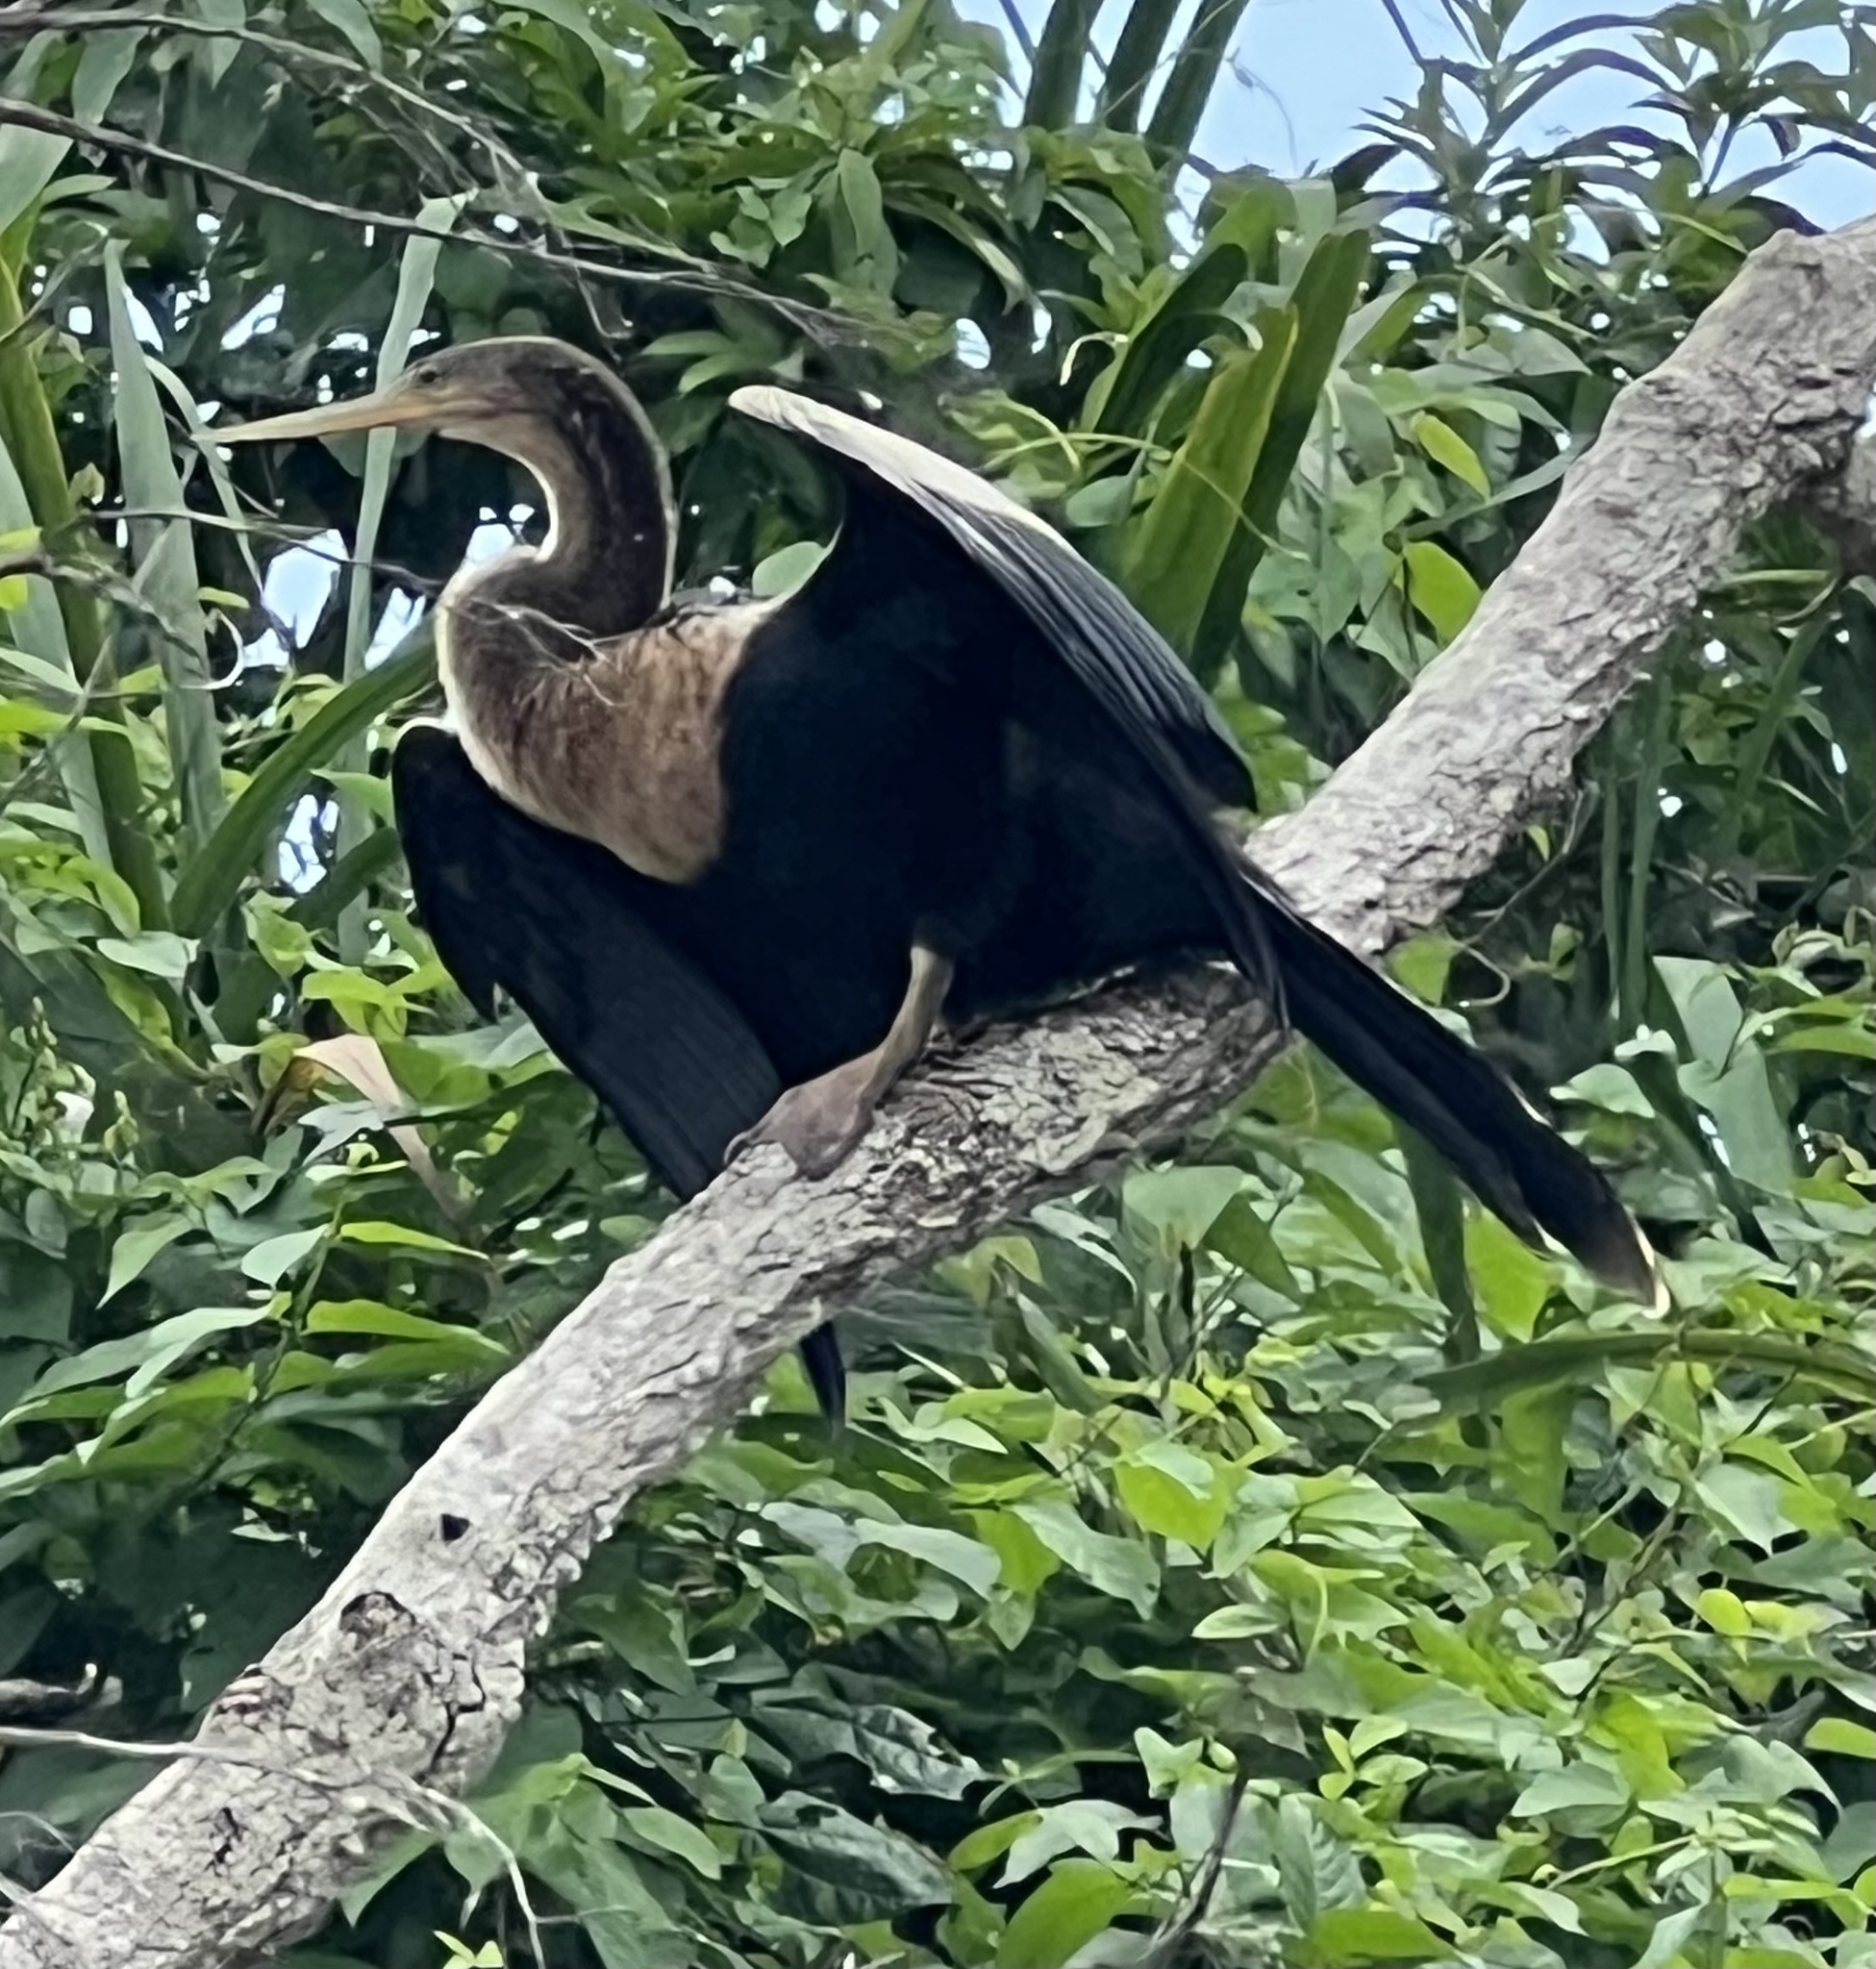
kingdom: Animalia
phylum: Chordata
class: Aves
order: Suliformes
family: Anhingidae
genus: Anhinga
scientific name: Anhinga anhinga
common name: Anhinga
